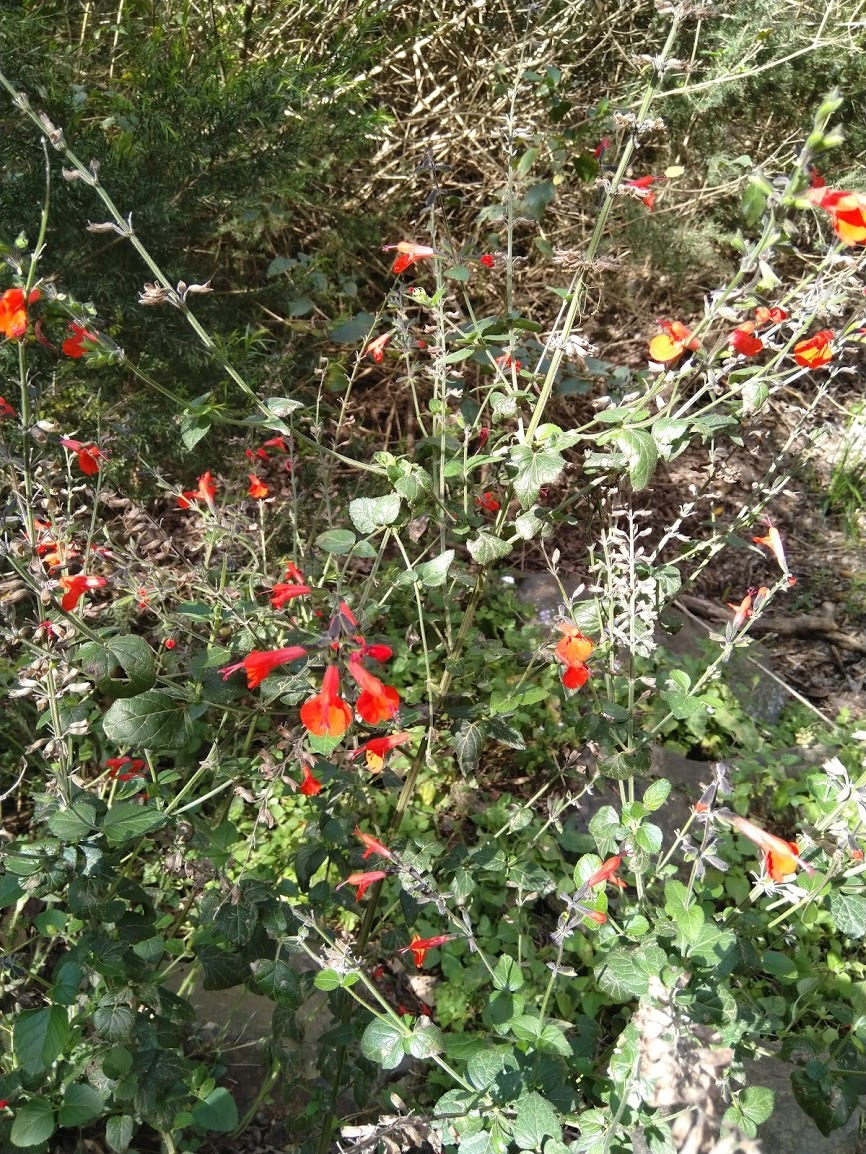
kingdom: Plantae
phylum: Tracheophyta
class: Magnoliopsida
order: Lamiales
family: Lamiaceae
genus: Salvia
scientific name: Salvia coccinea
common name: Blood sage
